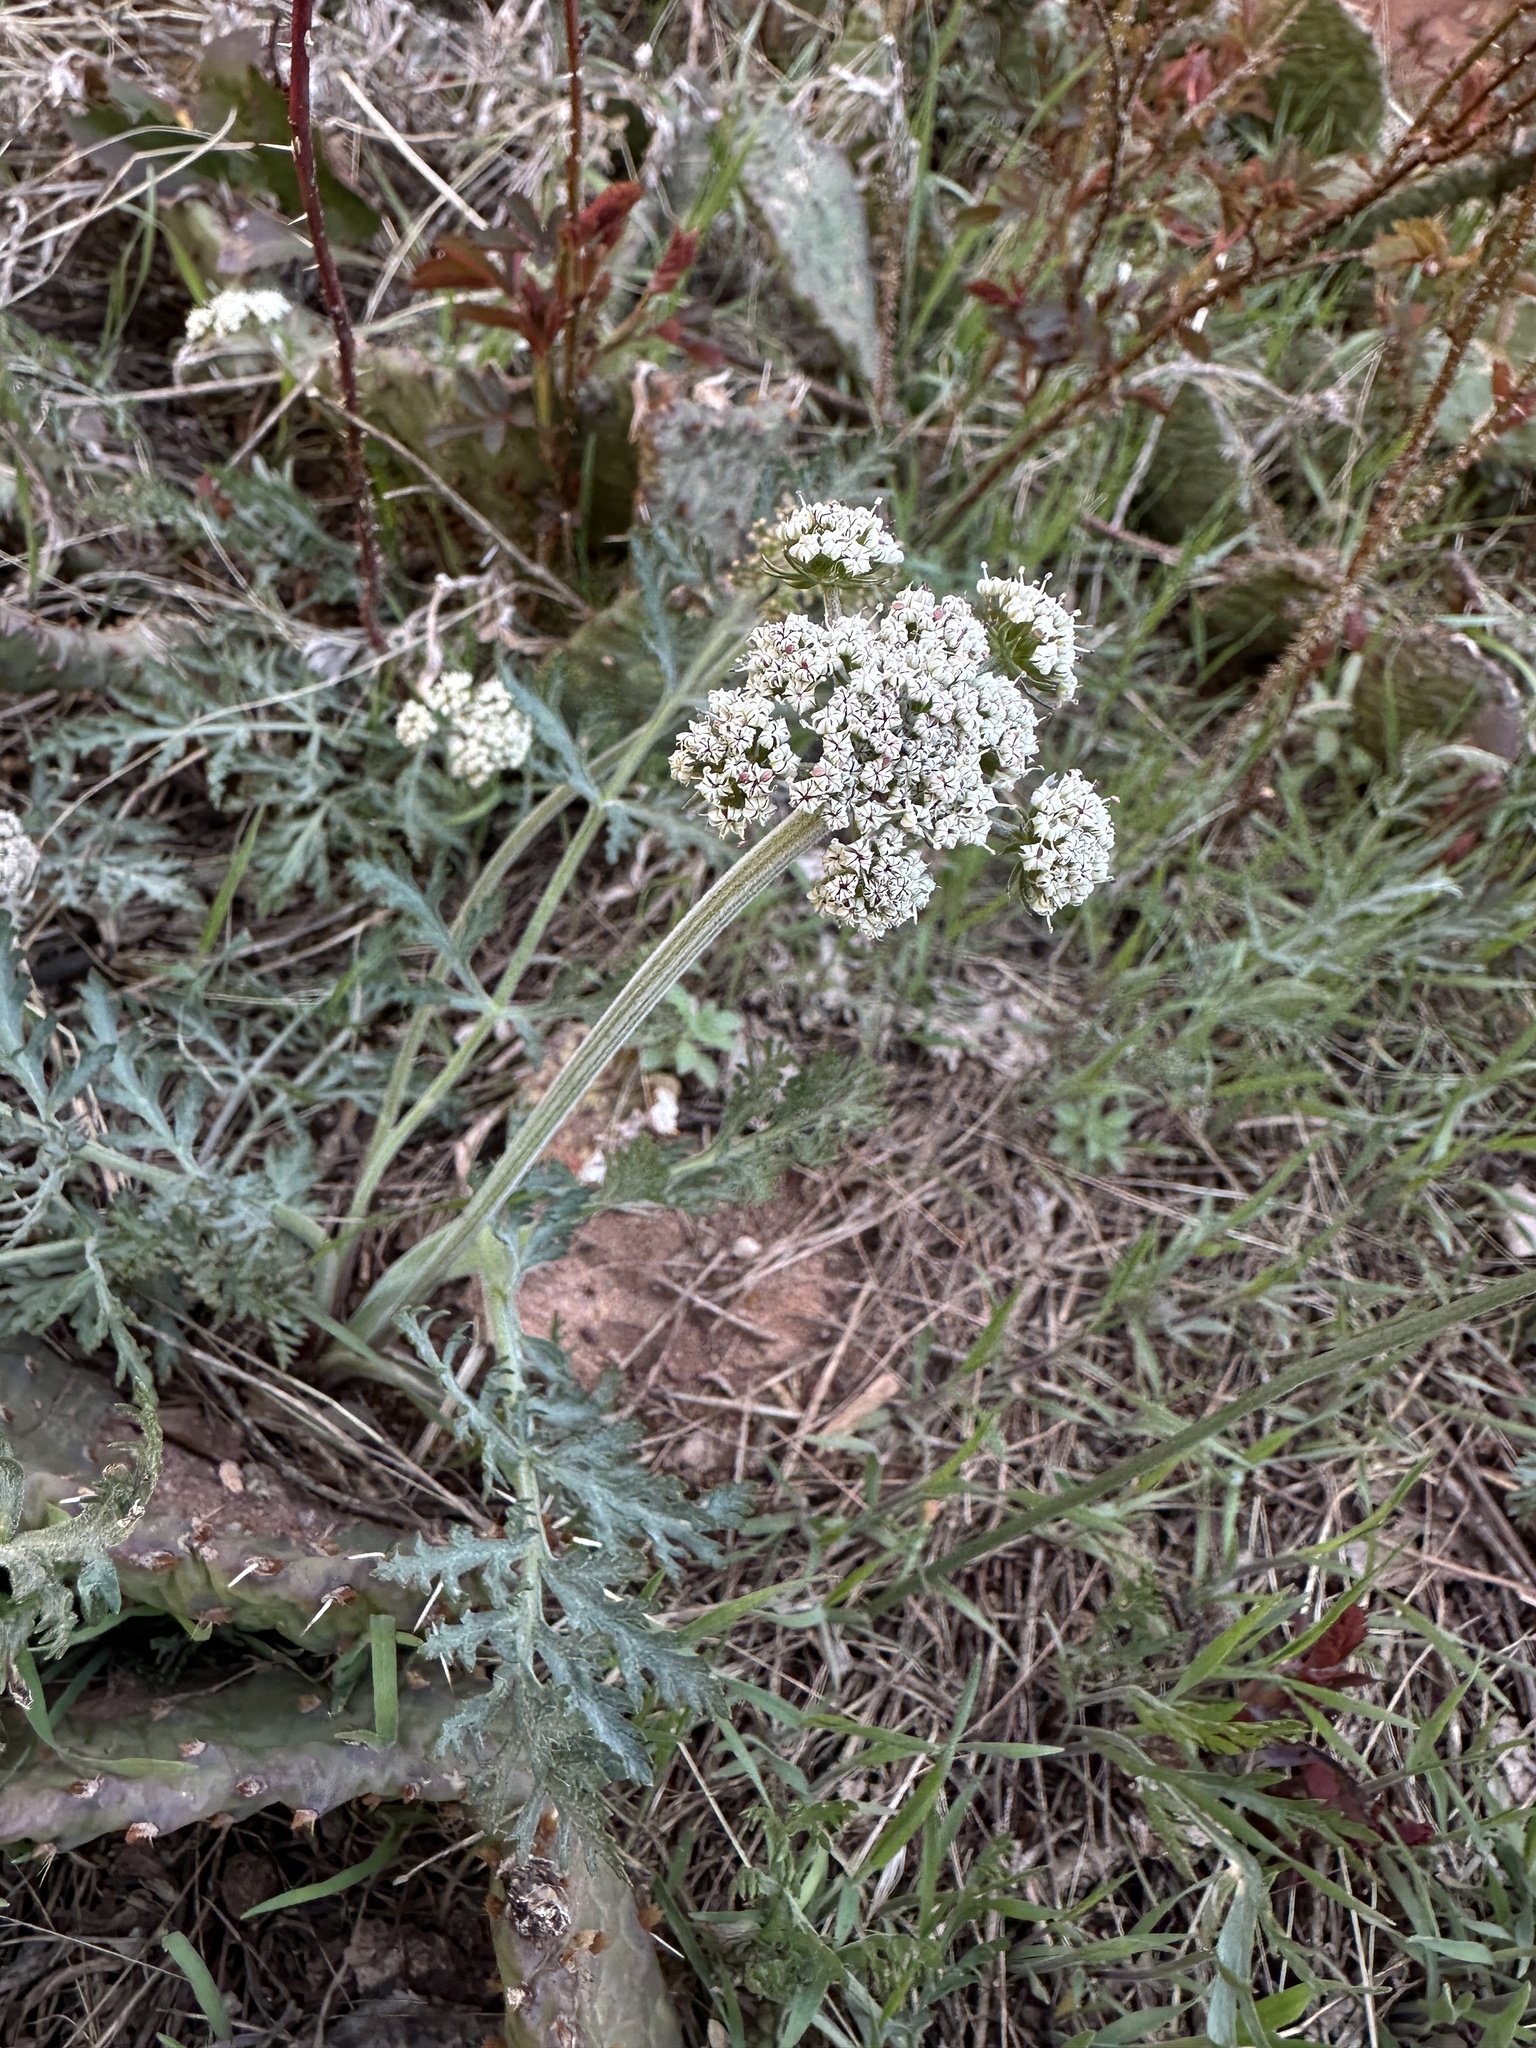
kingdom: Plantae
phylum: Tracheophyta
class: Magnoliopsida
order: Apiales
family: Apiaceae
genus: Lomatium
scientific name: Lomatium orientale
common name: Eastern cous
